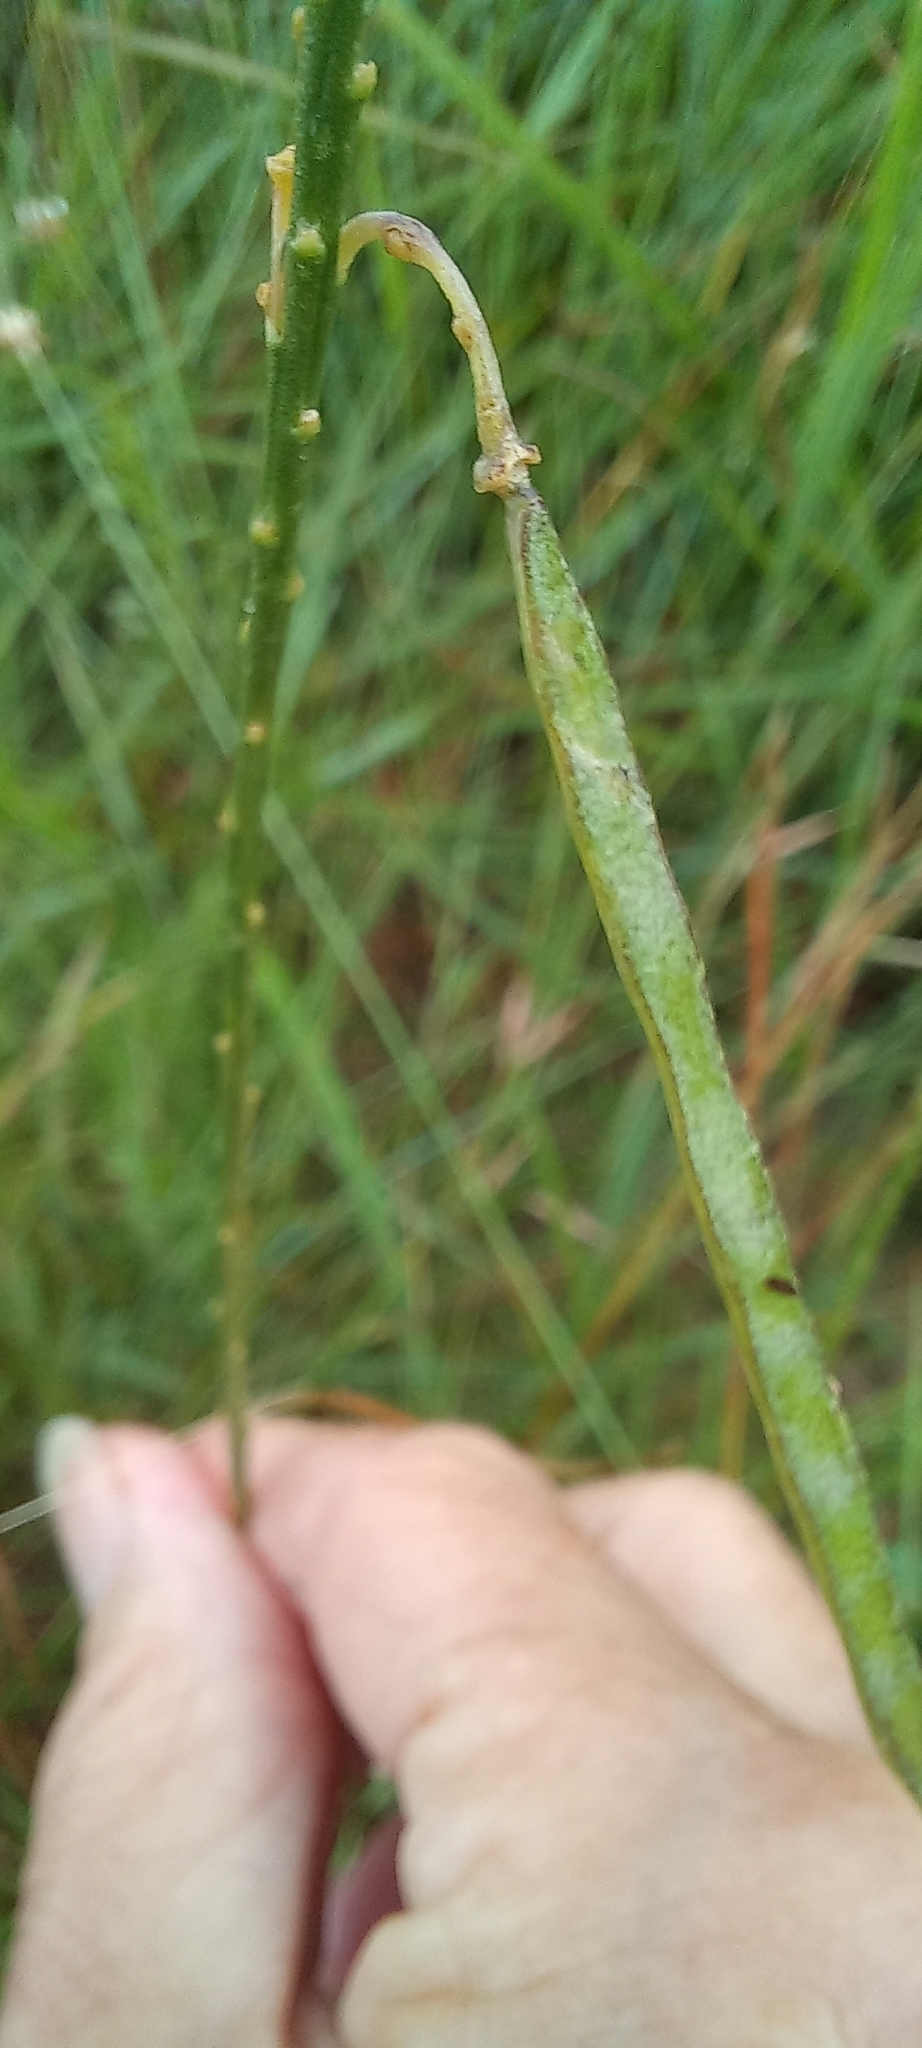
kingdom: Plantae
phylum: Tracheophyta
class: Magnoliopsida
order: Brassicales
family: Brassicaceae
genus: Heliophila
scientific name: Heliophila elongata
